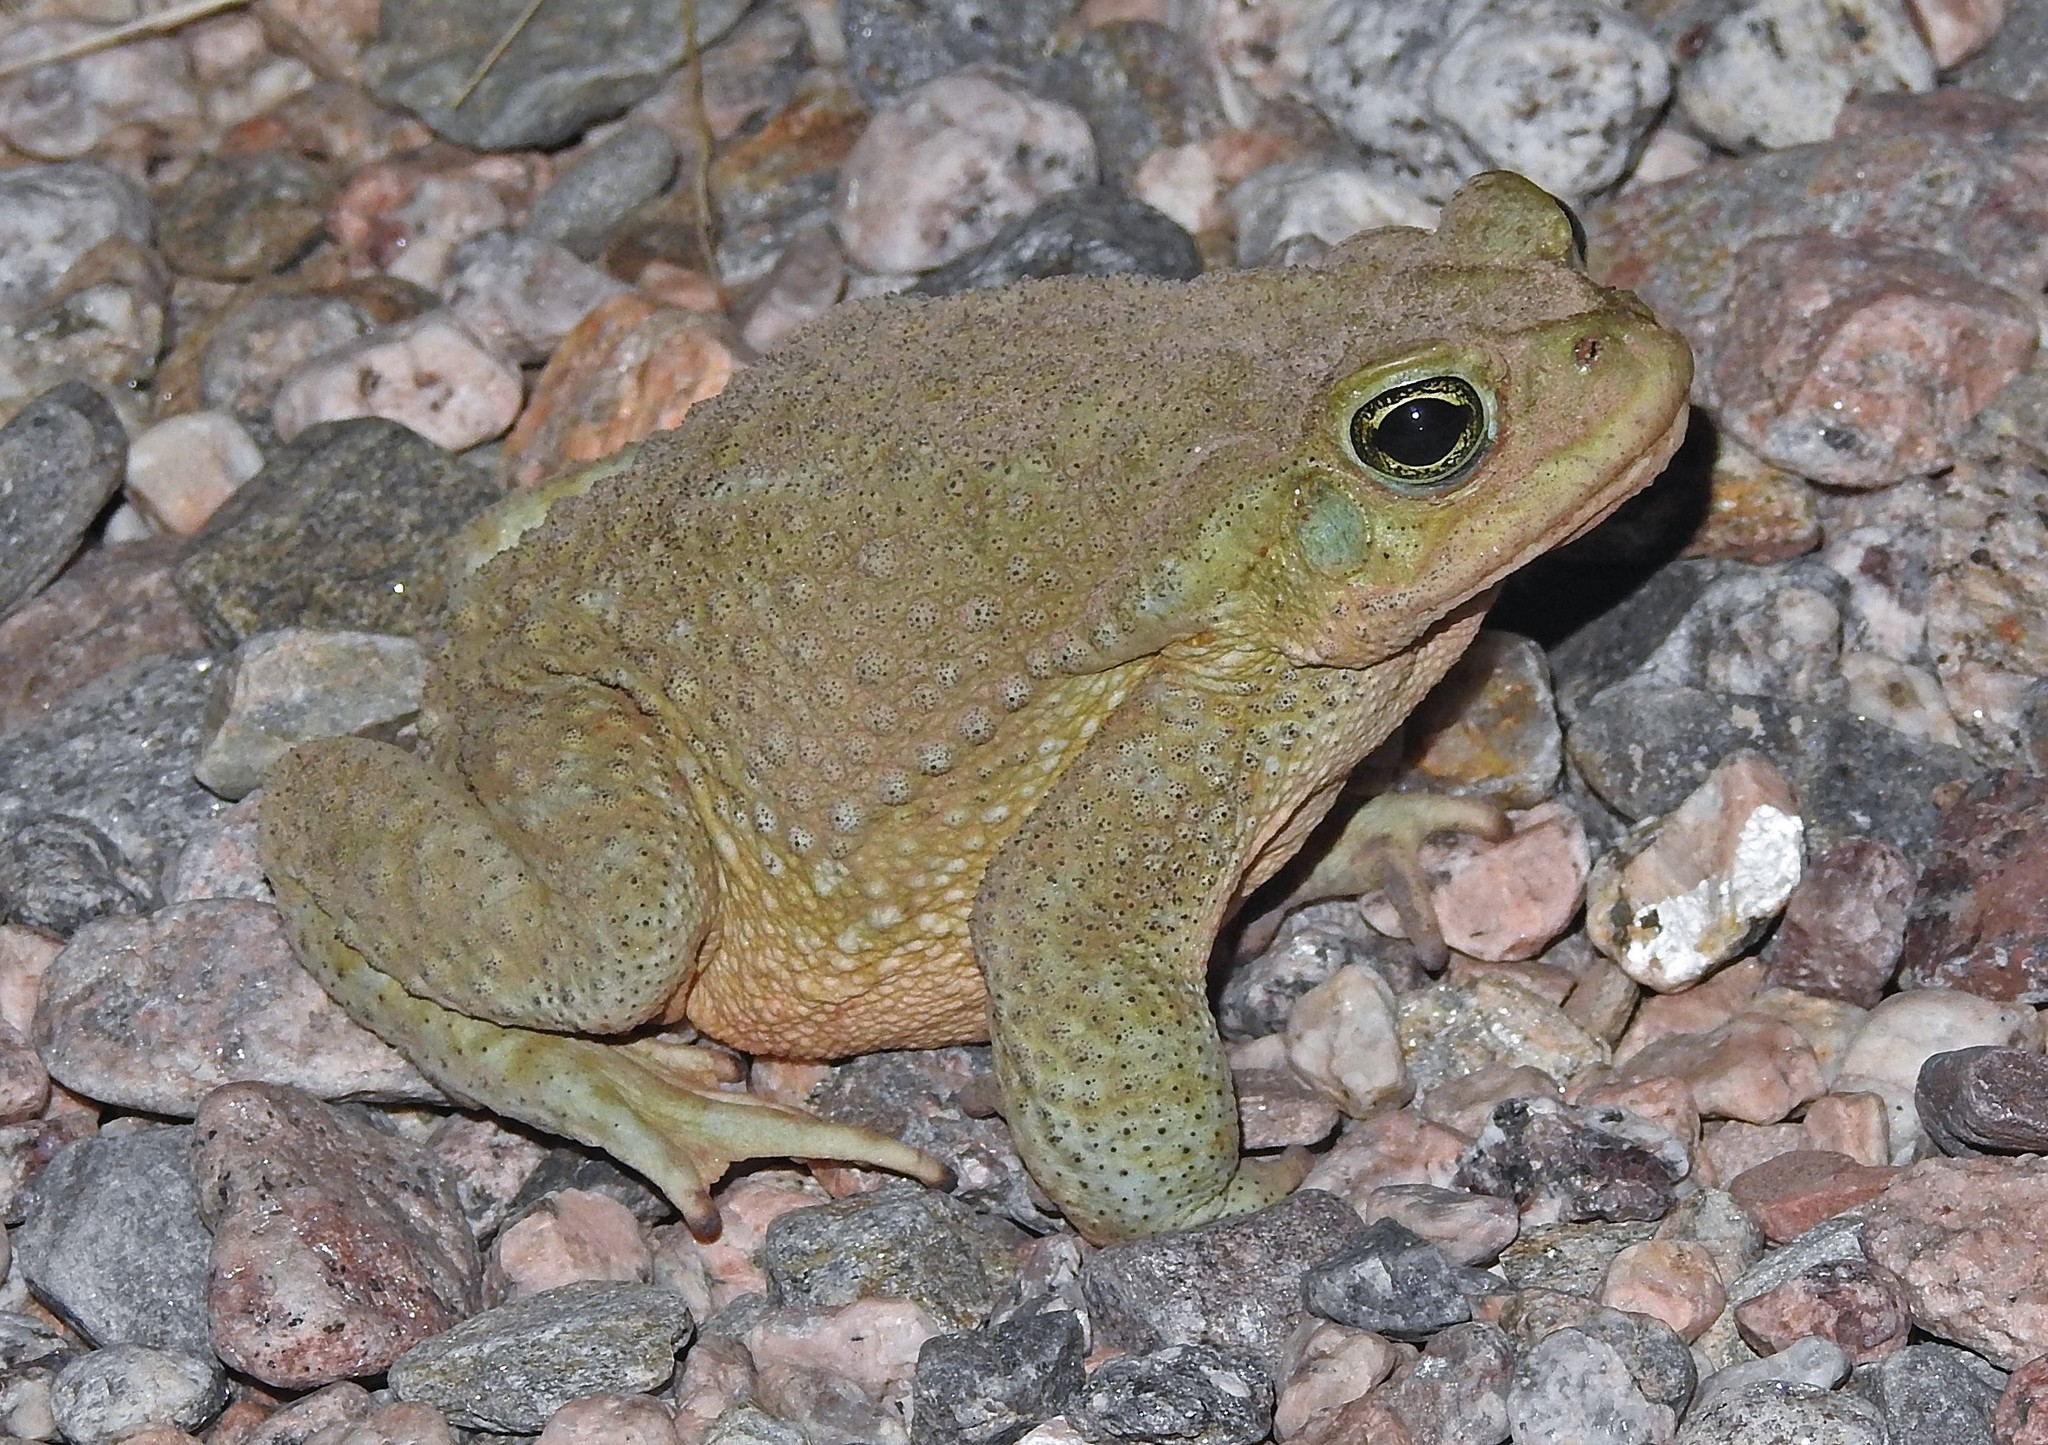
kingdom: Animalia
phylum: Chordata
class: Amphibia
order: Anura
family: Bufonidae
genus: Rhinella
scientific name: Rhinella arenarum
